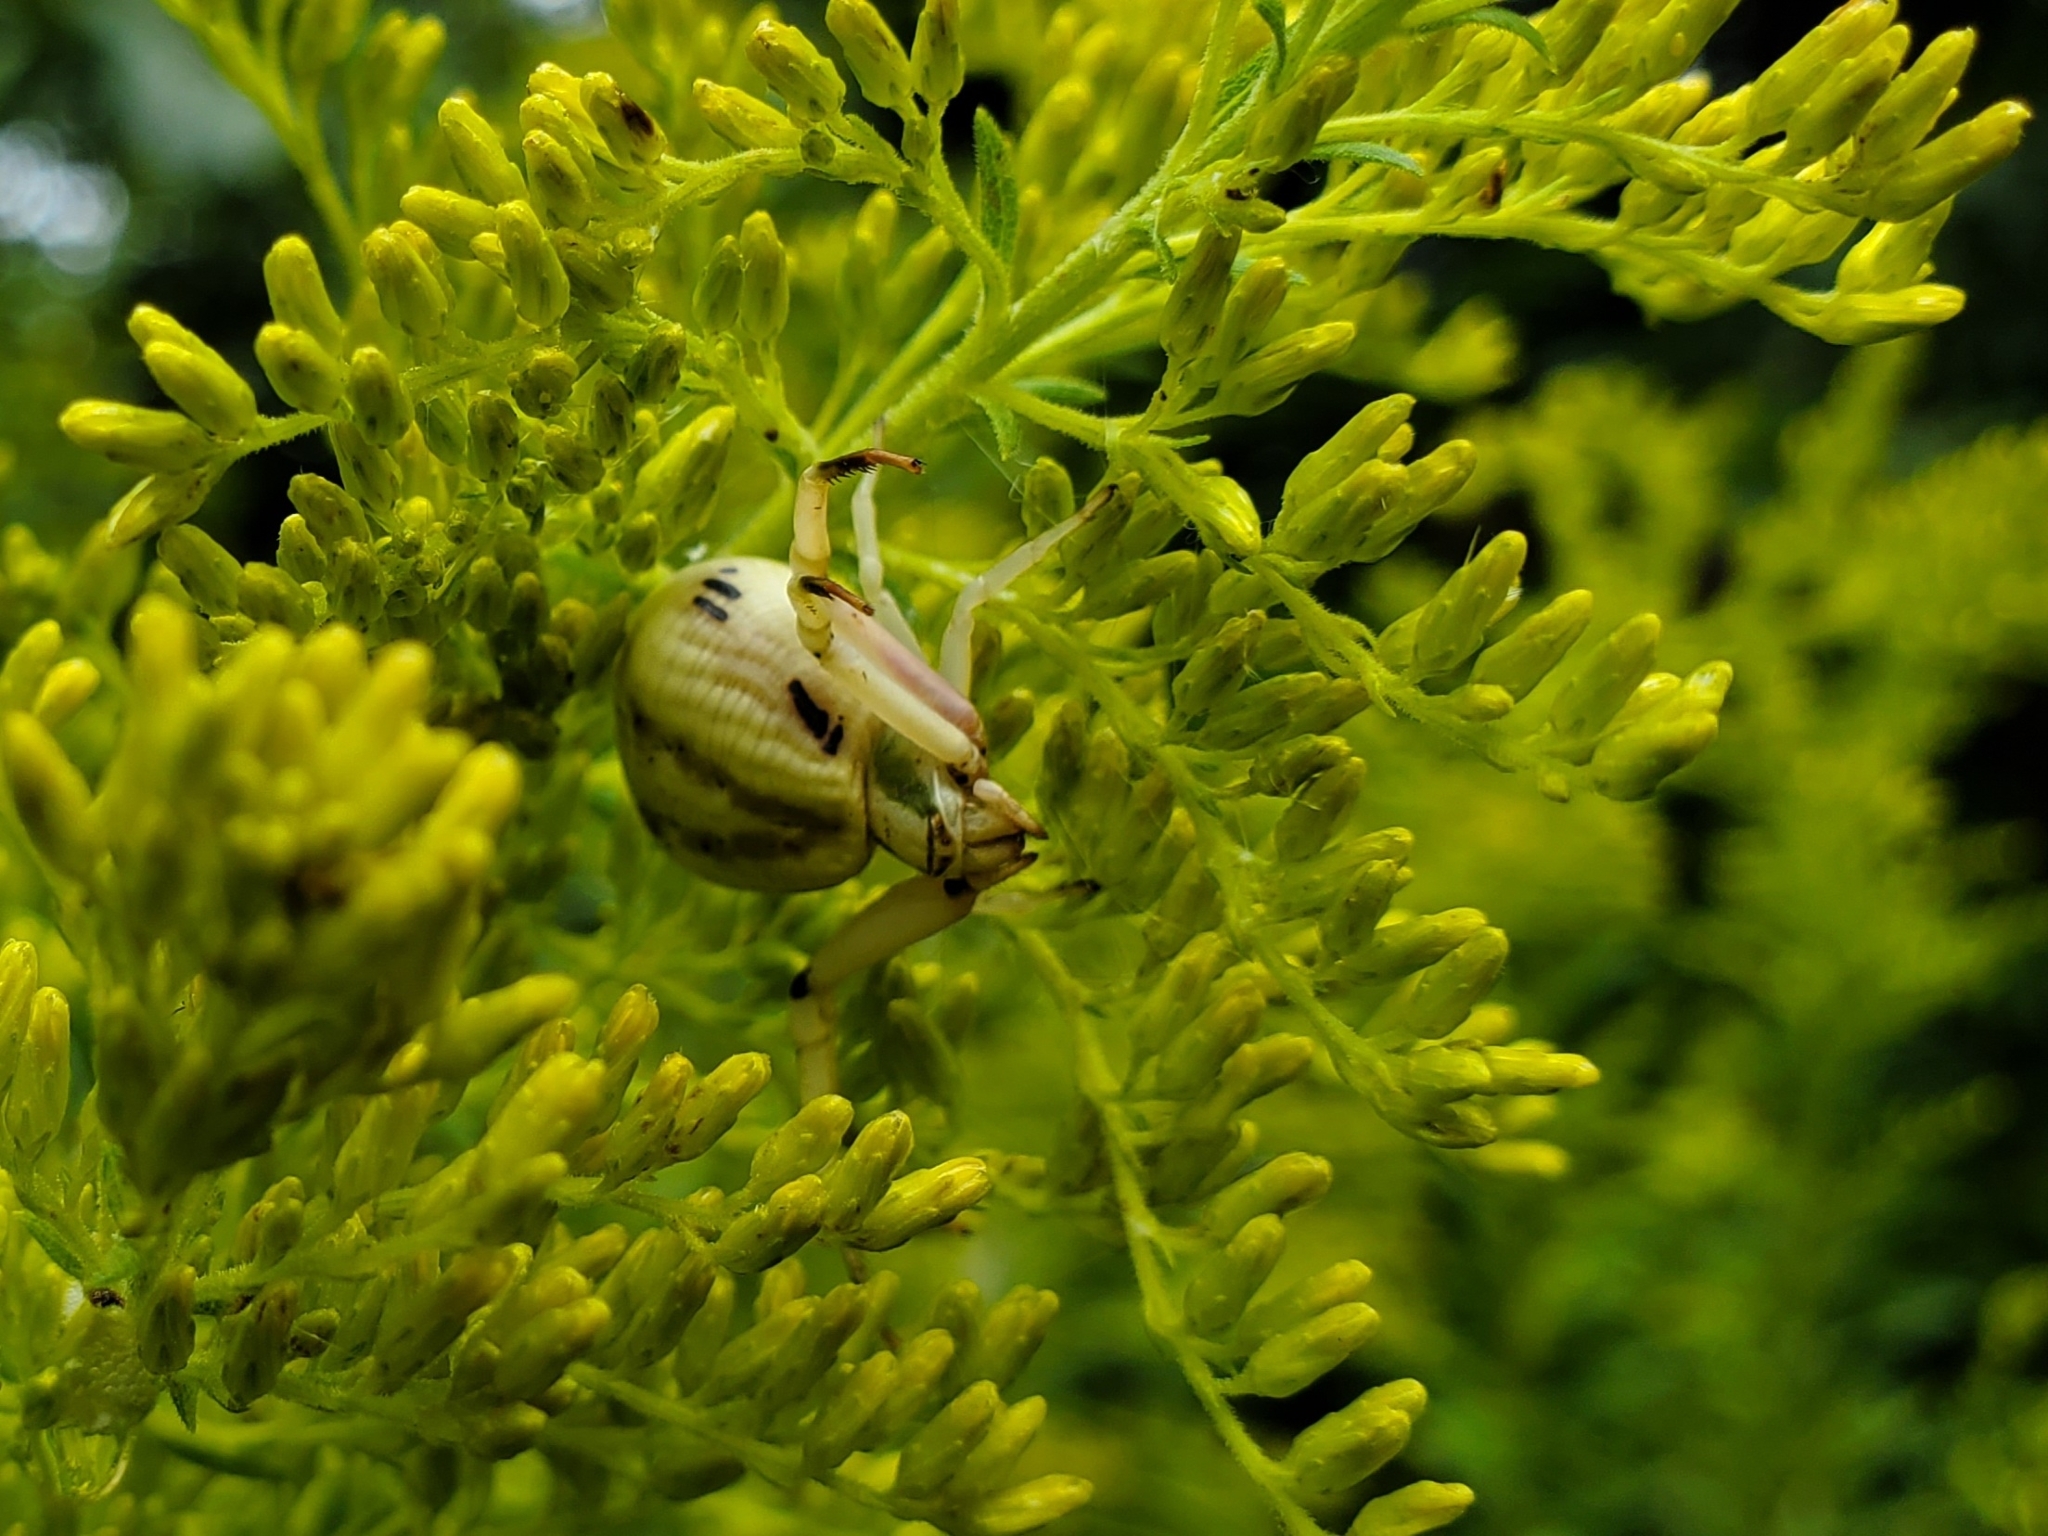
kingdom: Animalia
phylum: Arthropoda
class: Arachnida
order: Araneae
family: Thomisidae
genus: Misumenoides
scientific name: Misumenoides formosipes
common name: White-banded crab spider
